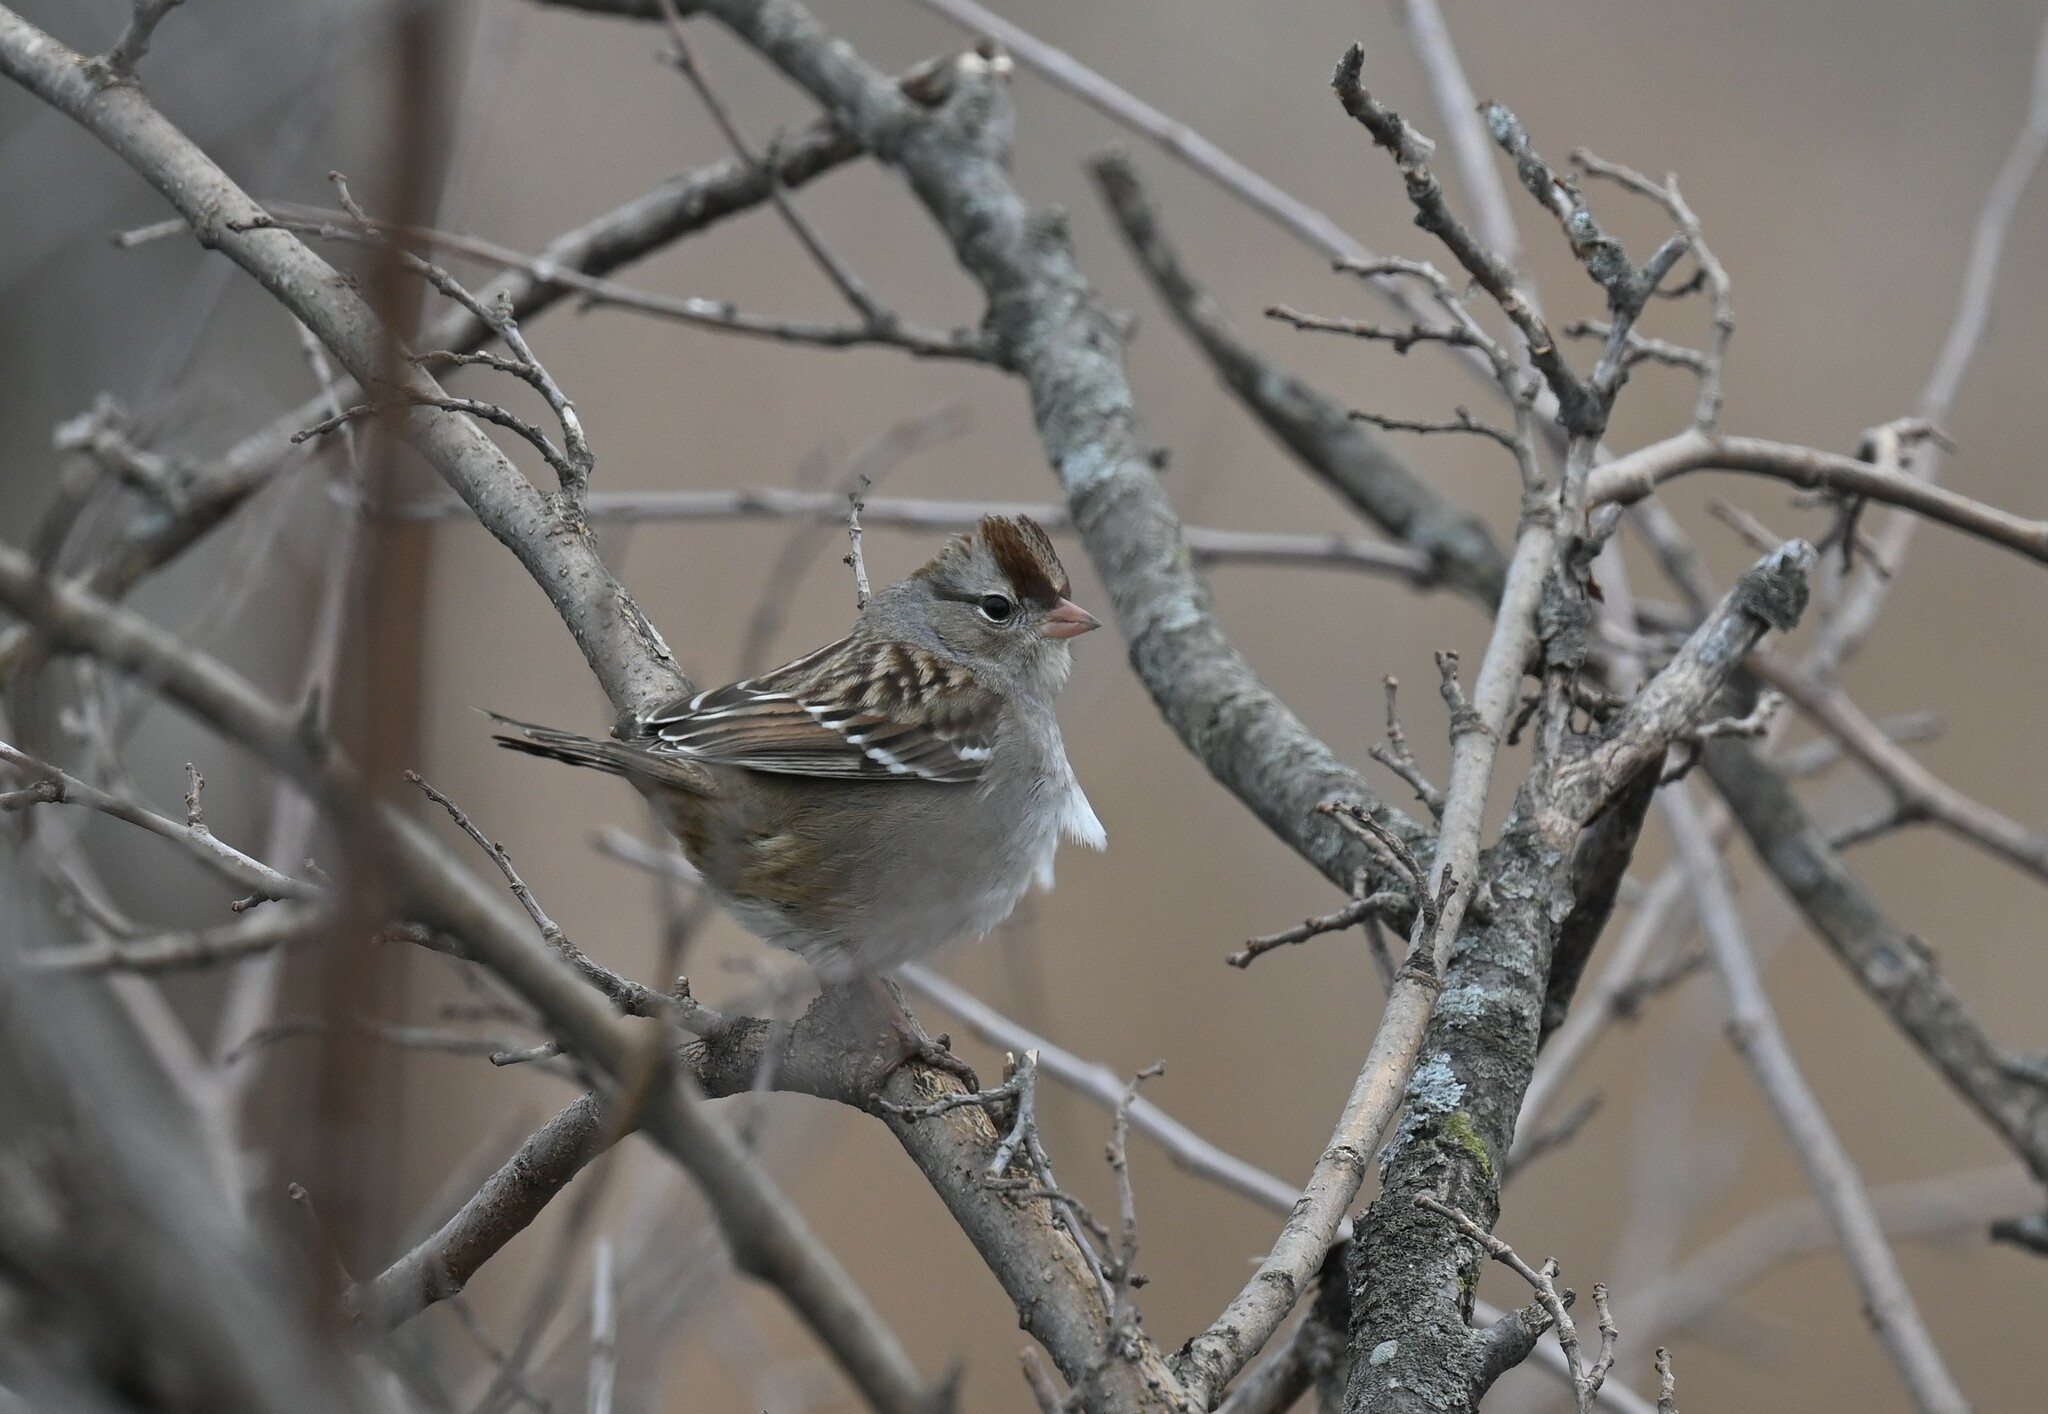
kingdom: Animalia
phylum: Chordata
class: Aves
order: Passeriformes
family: Passerellidae
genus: Zonotrichia
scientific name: Zonotrichia leucophrys
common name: White-crowned sparrow
